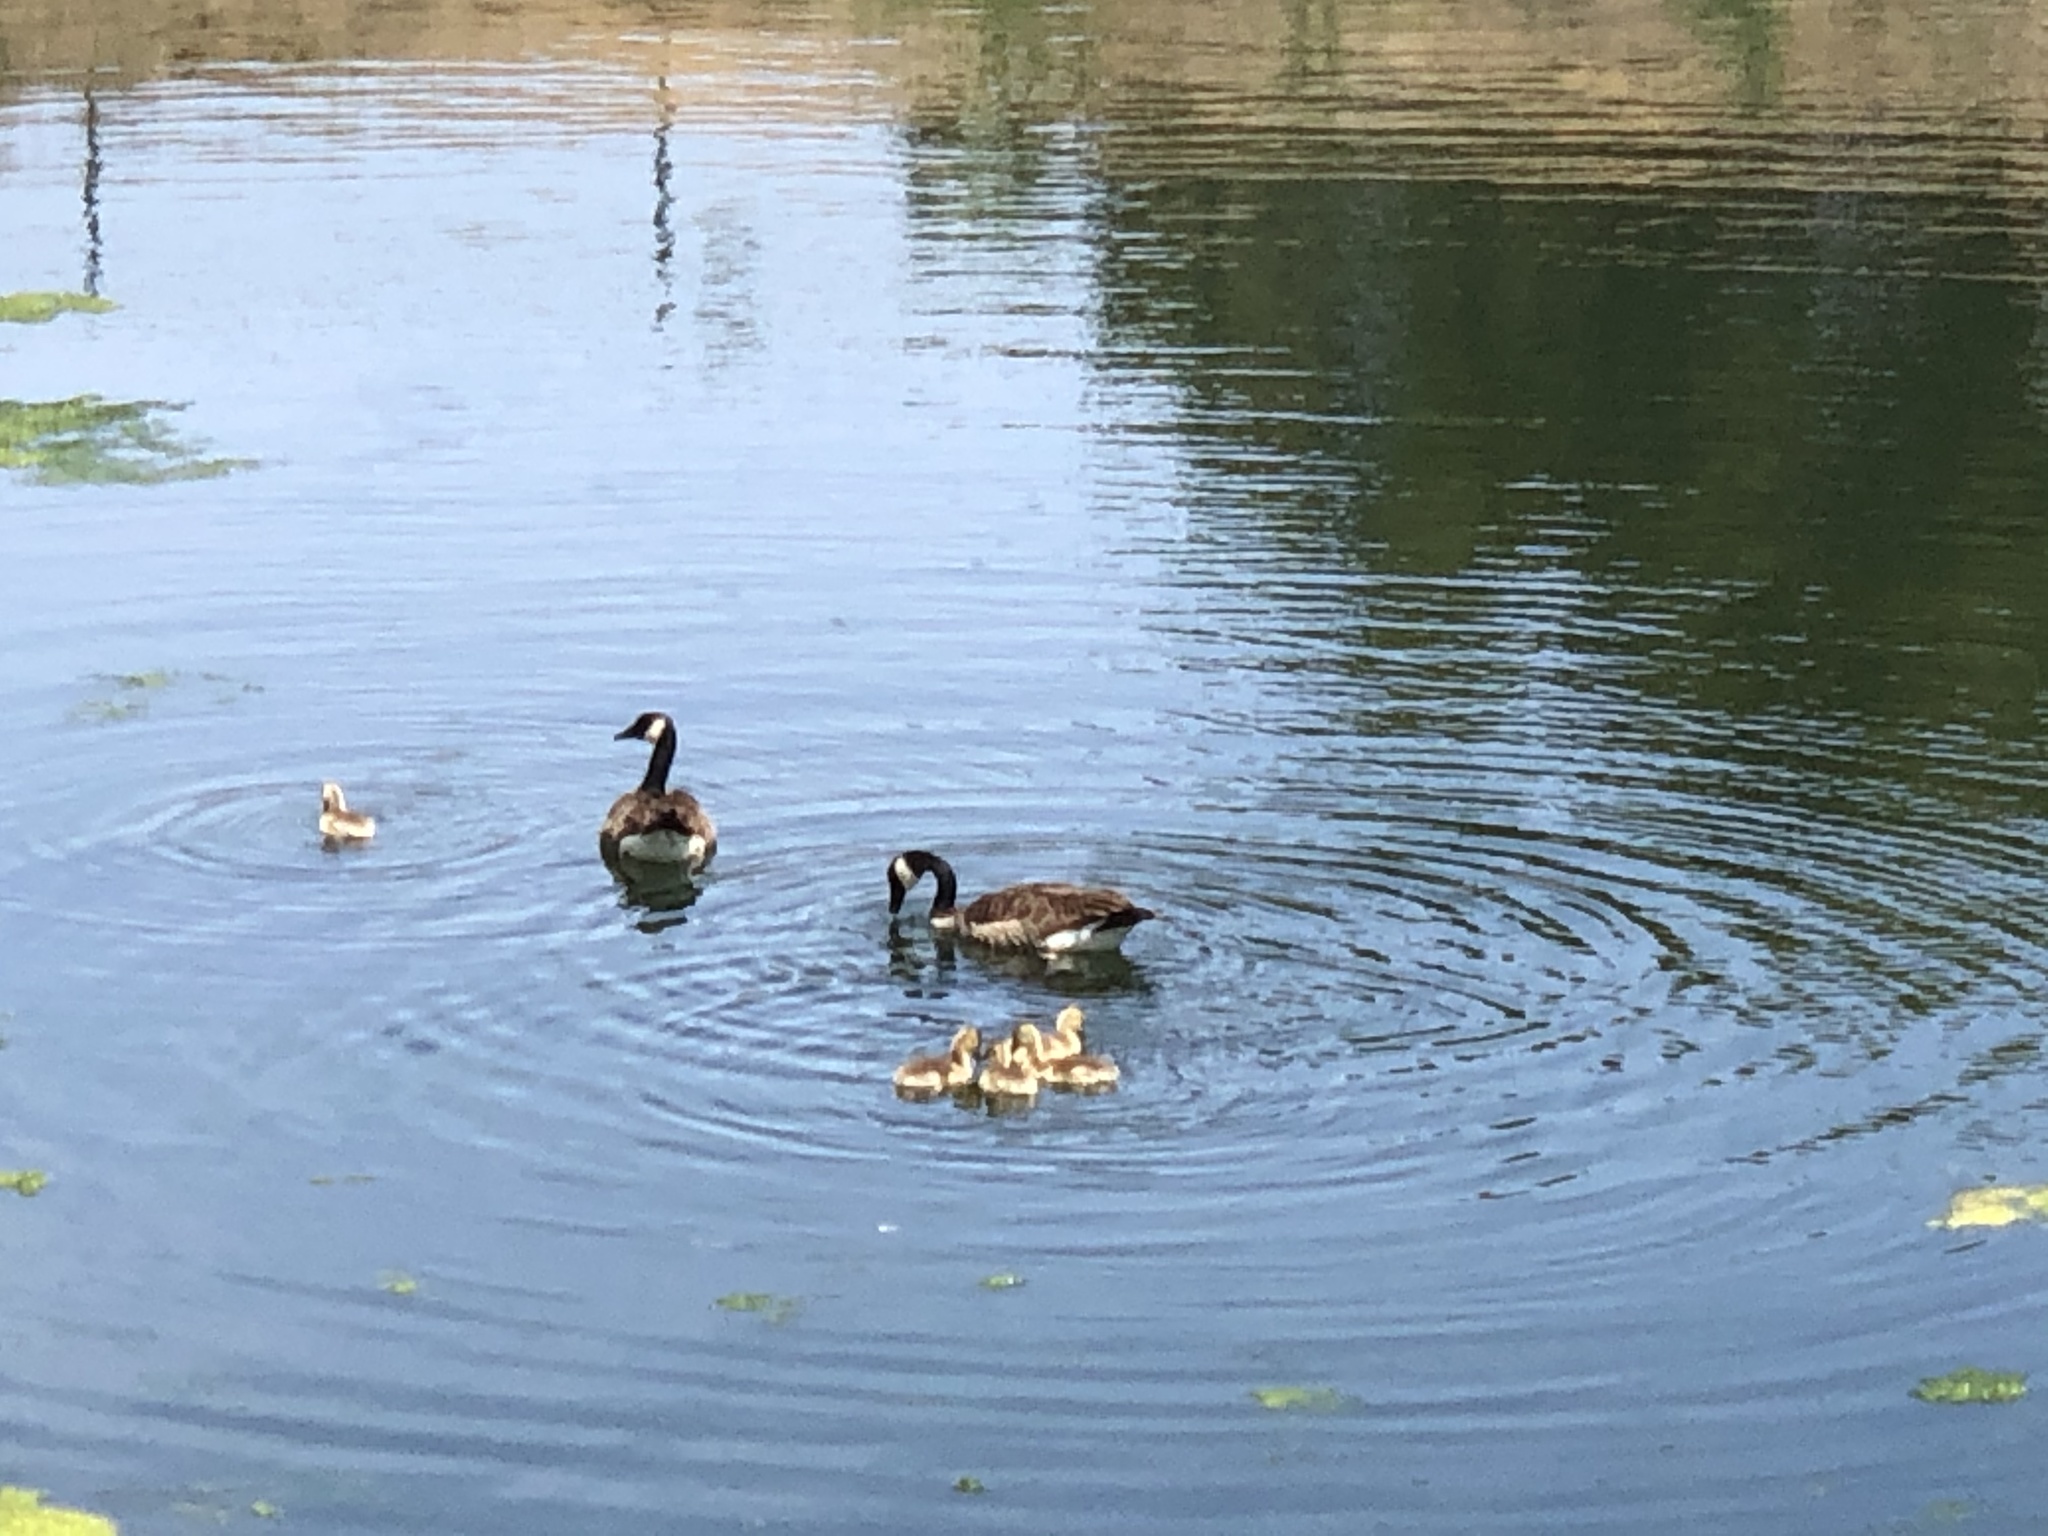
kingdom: Animalia
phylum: Chordata
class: Aves
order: Anseriformes
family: Anatidae
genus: Branta
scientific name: Branta canadensis
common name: Canada goose
